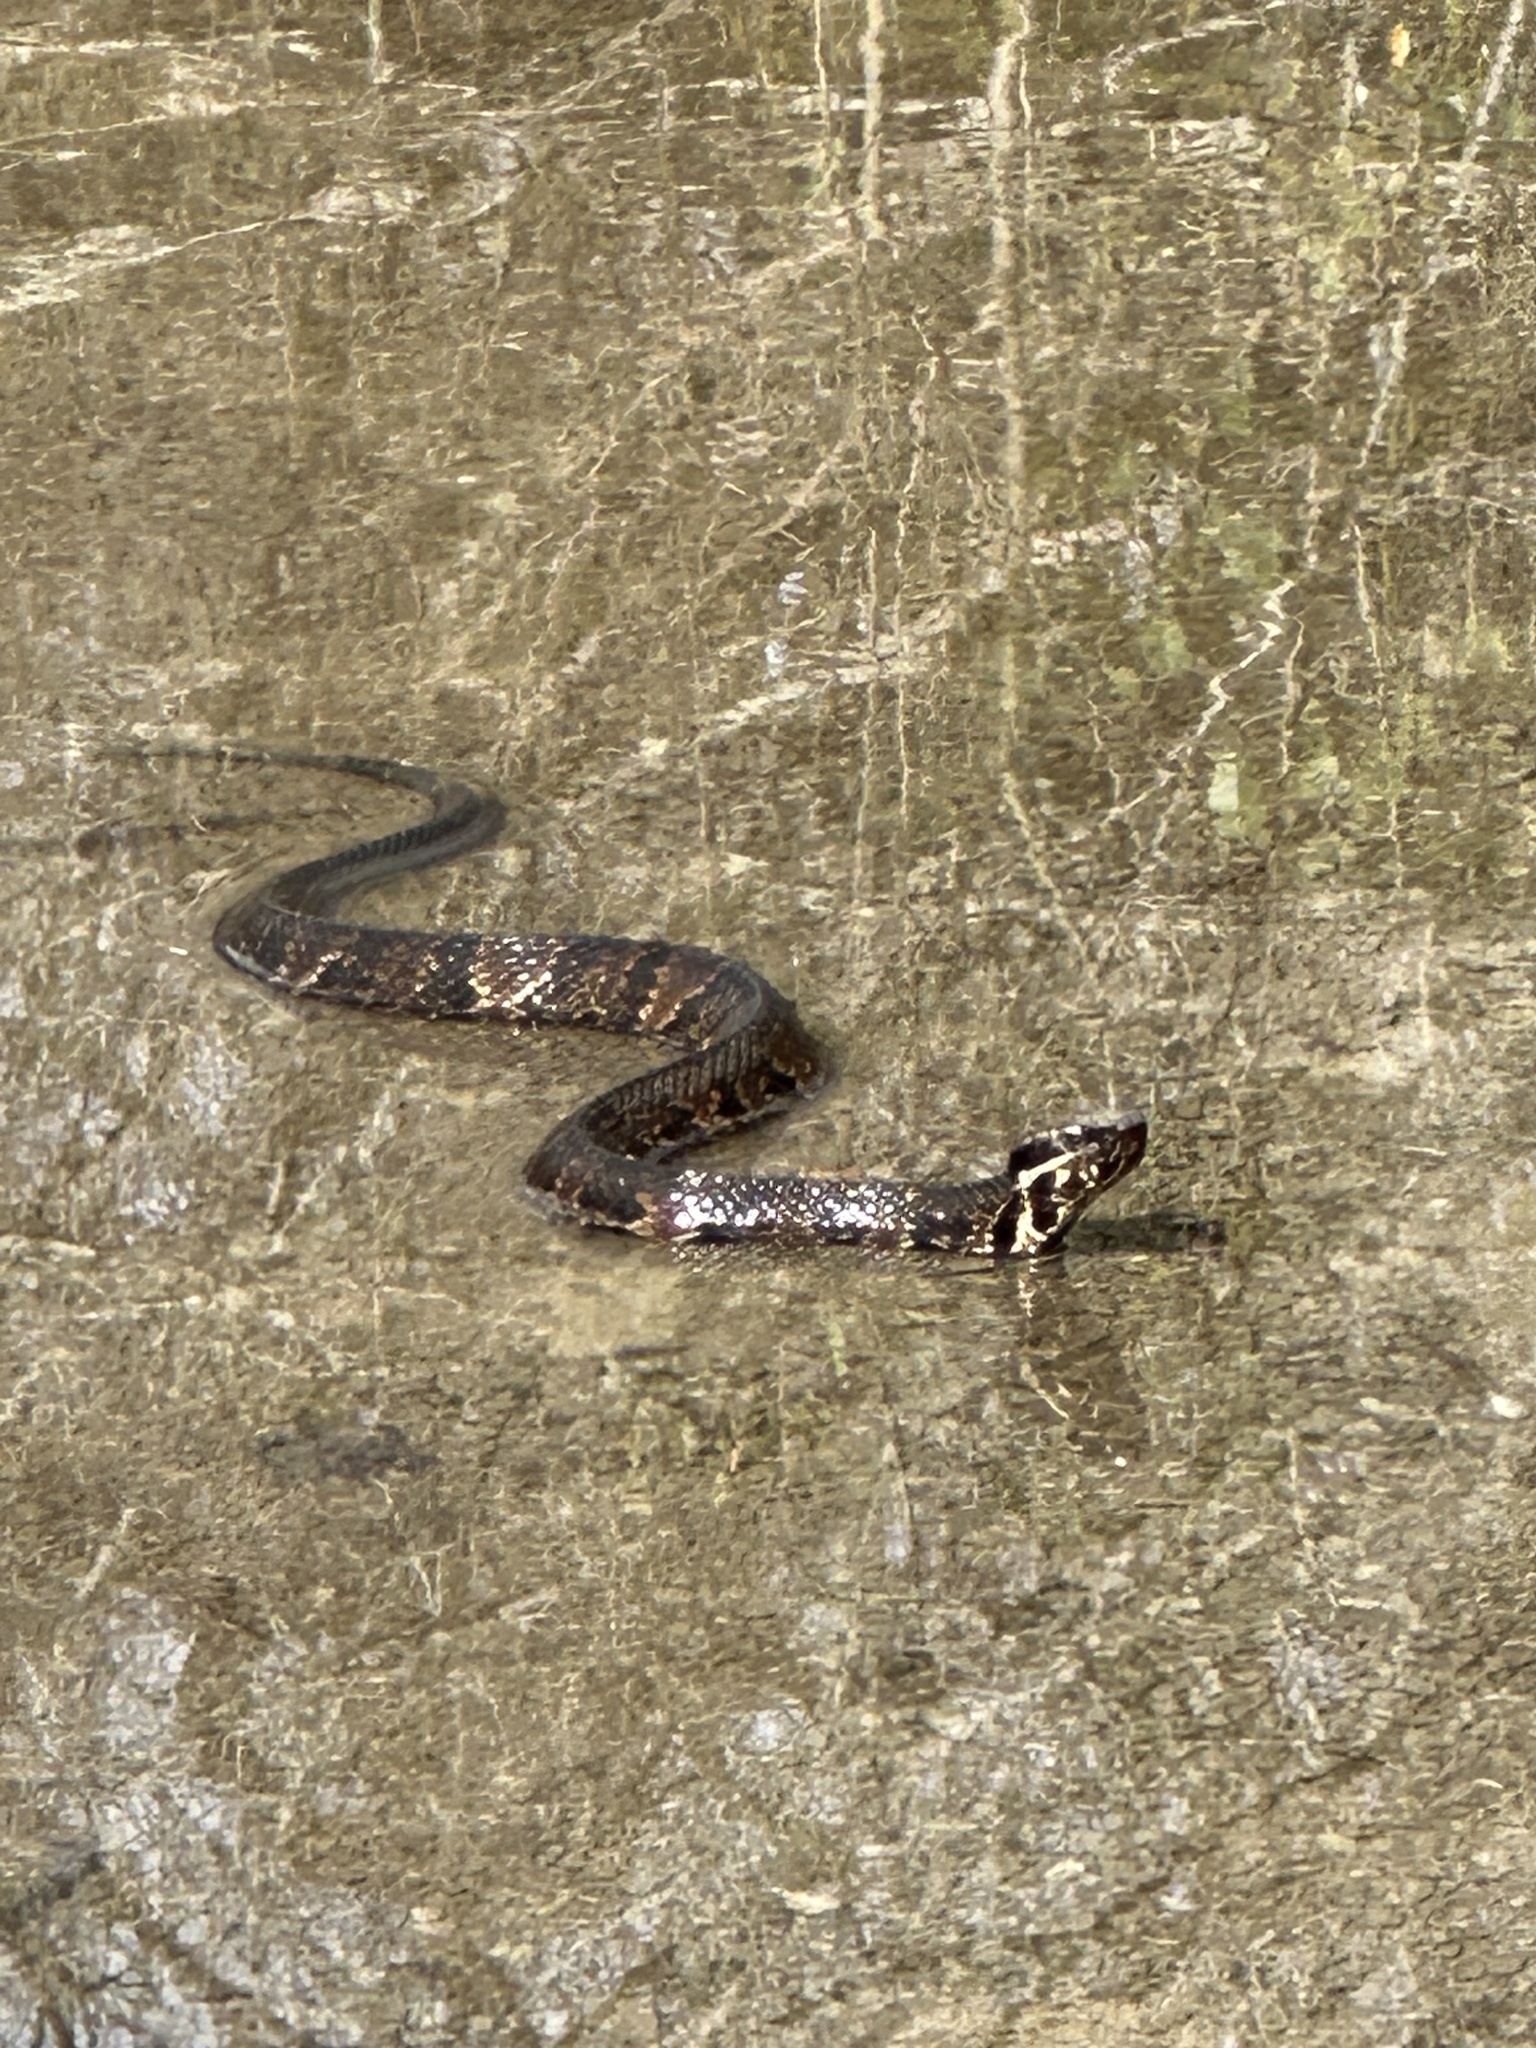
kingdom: Animalia
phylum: Chordata
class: Squamata
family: Viperidae
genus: Agkistrodon
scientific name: Agkistrodon piscivorus
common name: Cottonmouth
